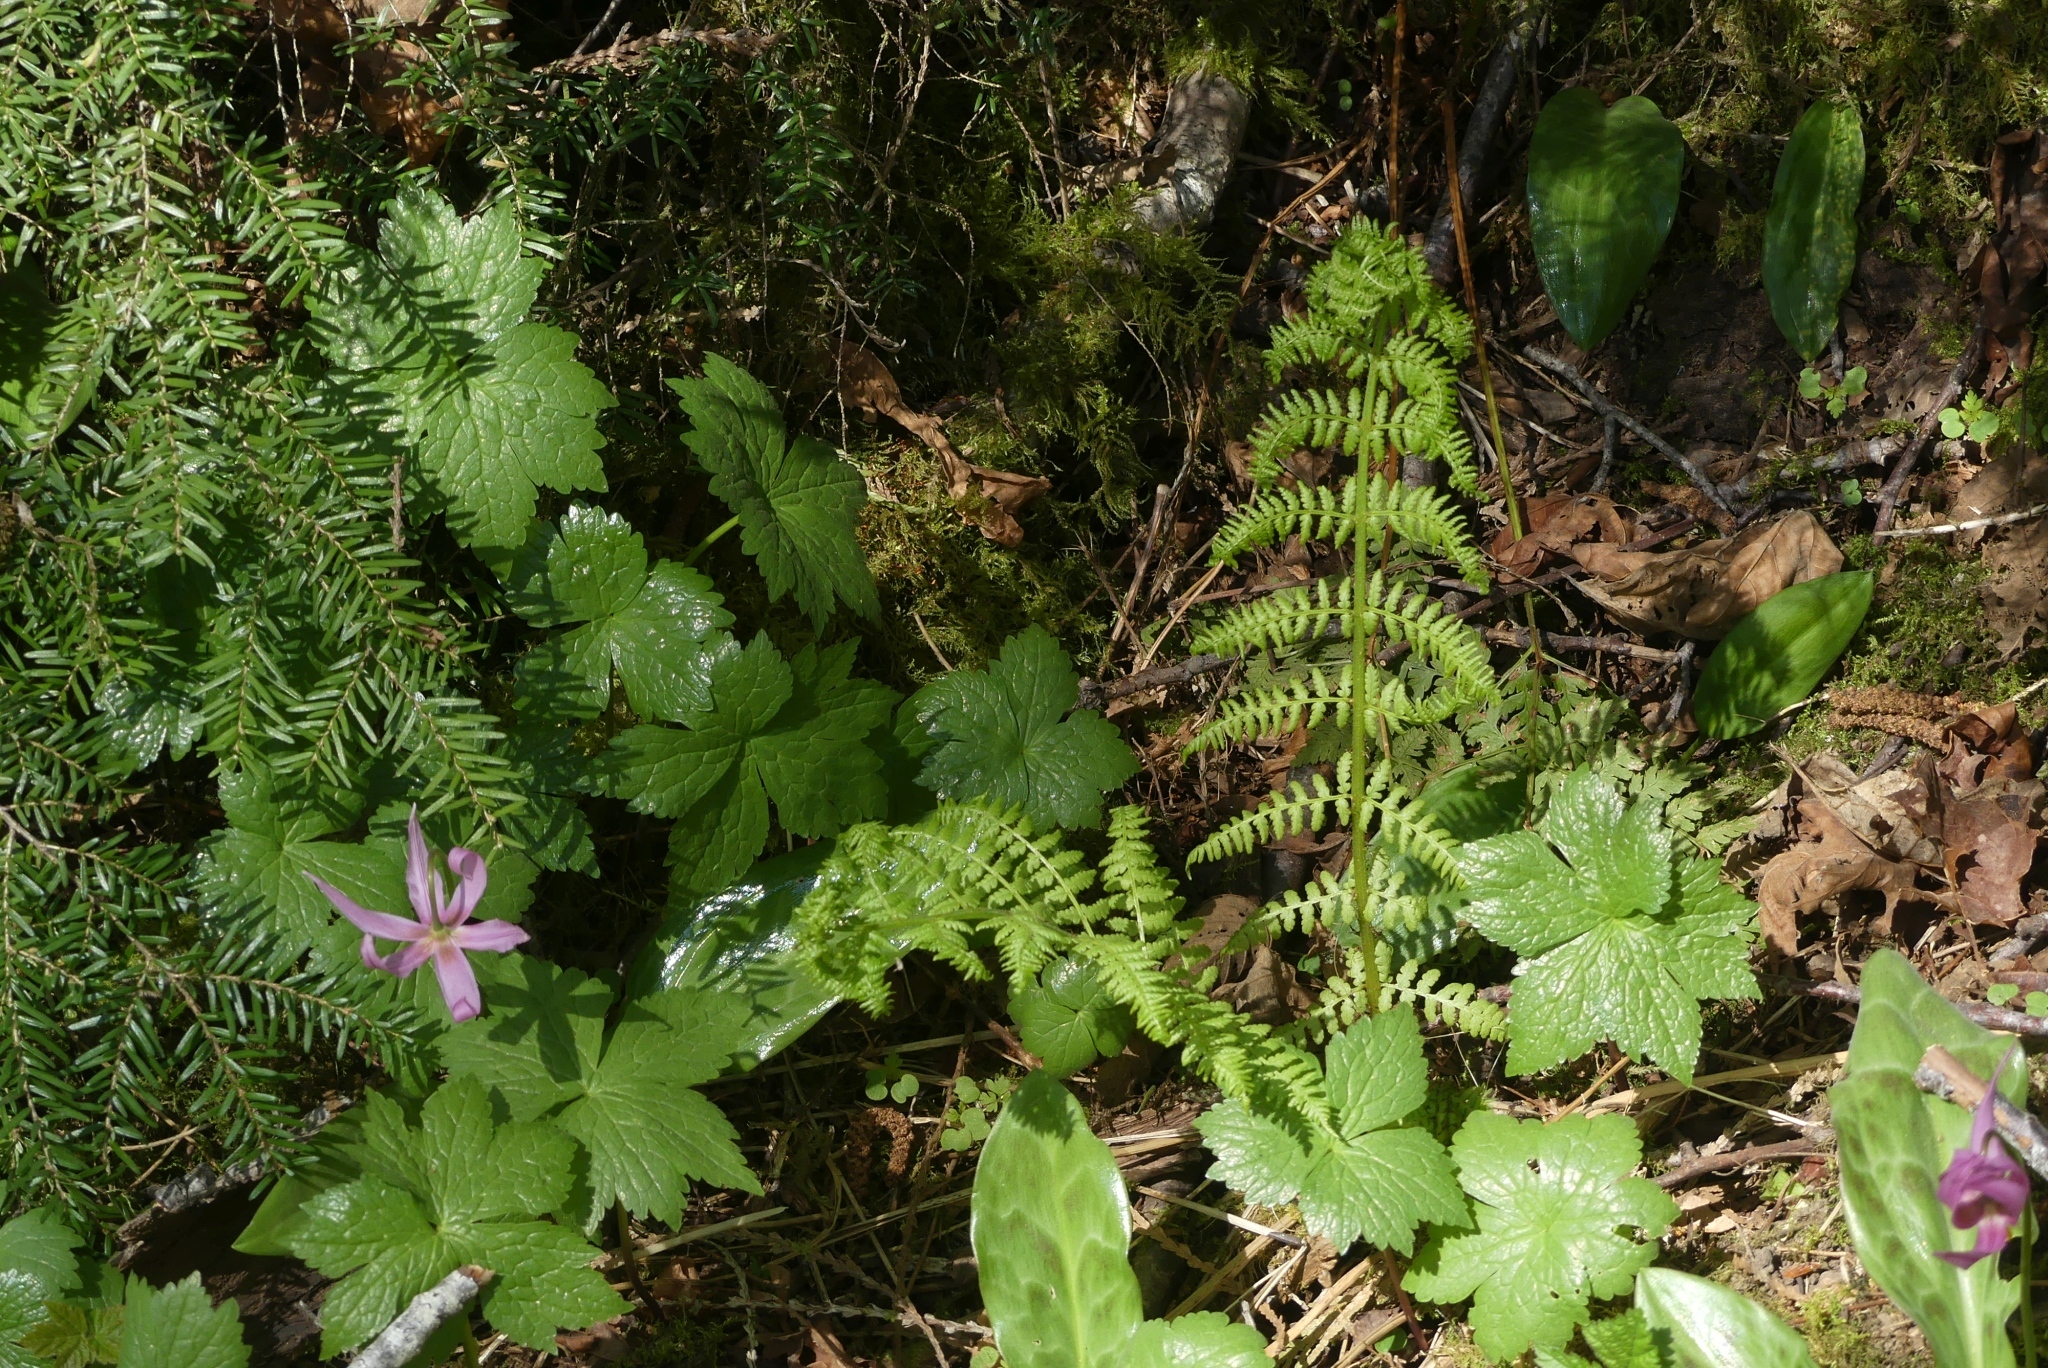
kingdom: Plantae
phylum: Tracheophyta
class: Polypodiopsida
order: Polypodiales
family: Athyriaceae
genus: Athyrium
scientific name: Athyrium filix-femina
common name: Lady fern
